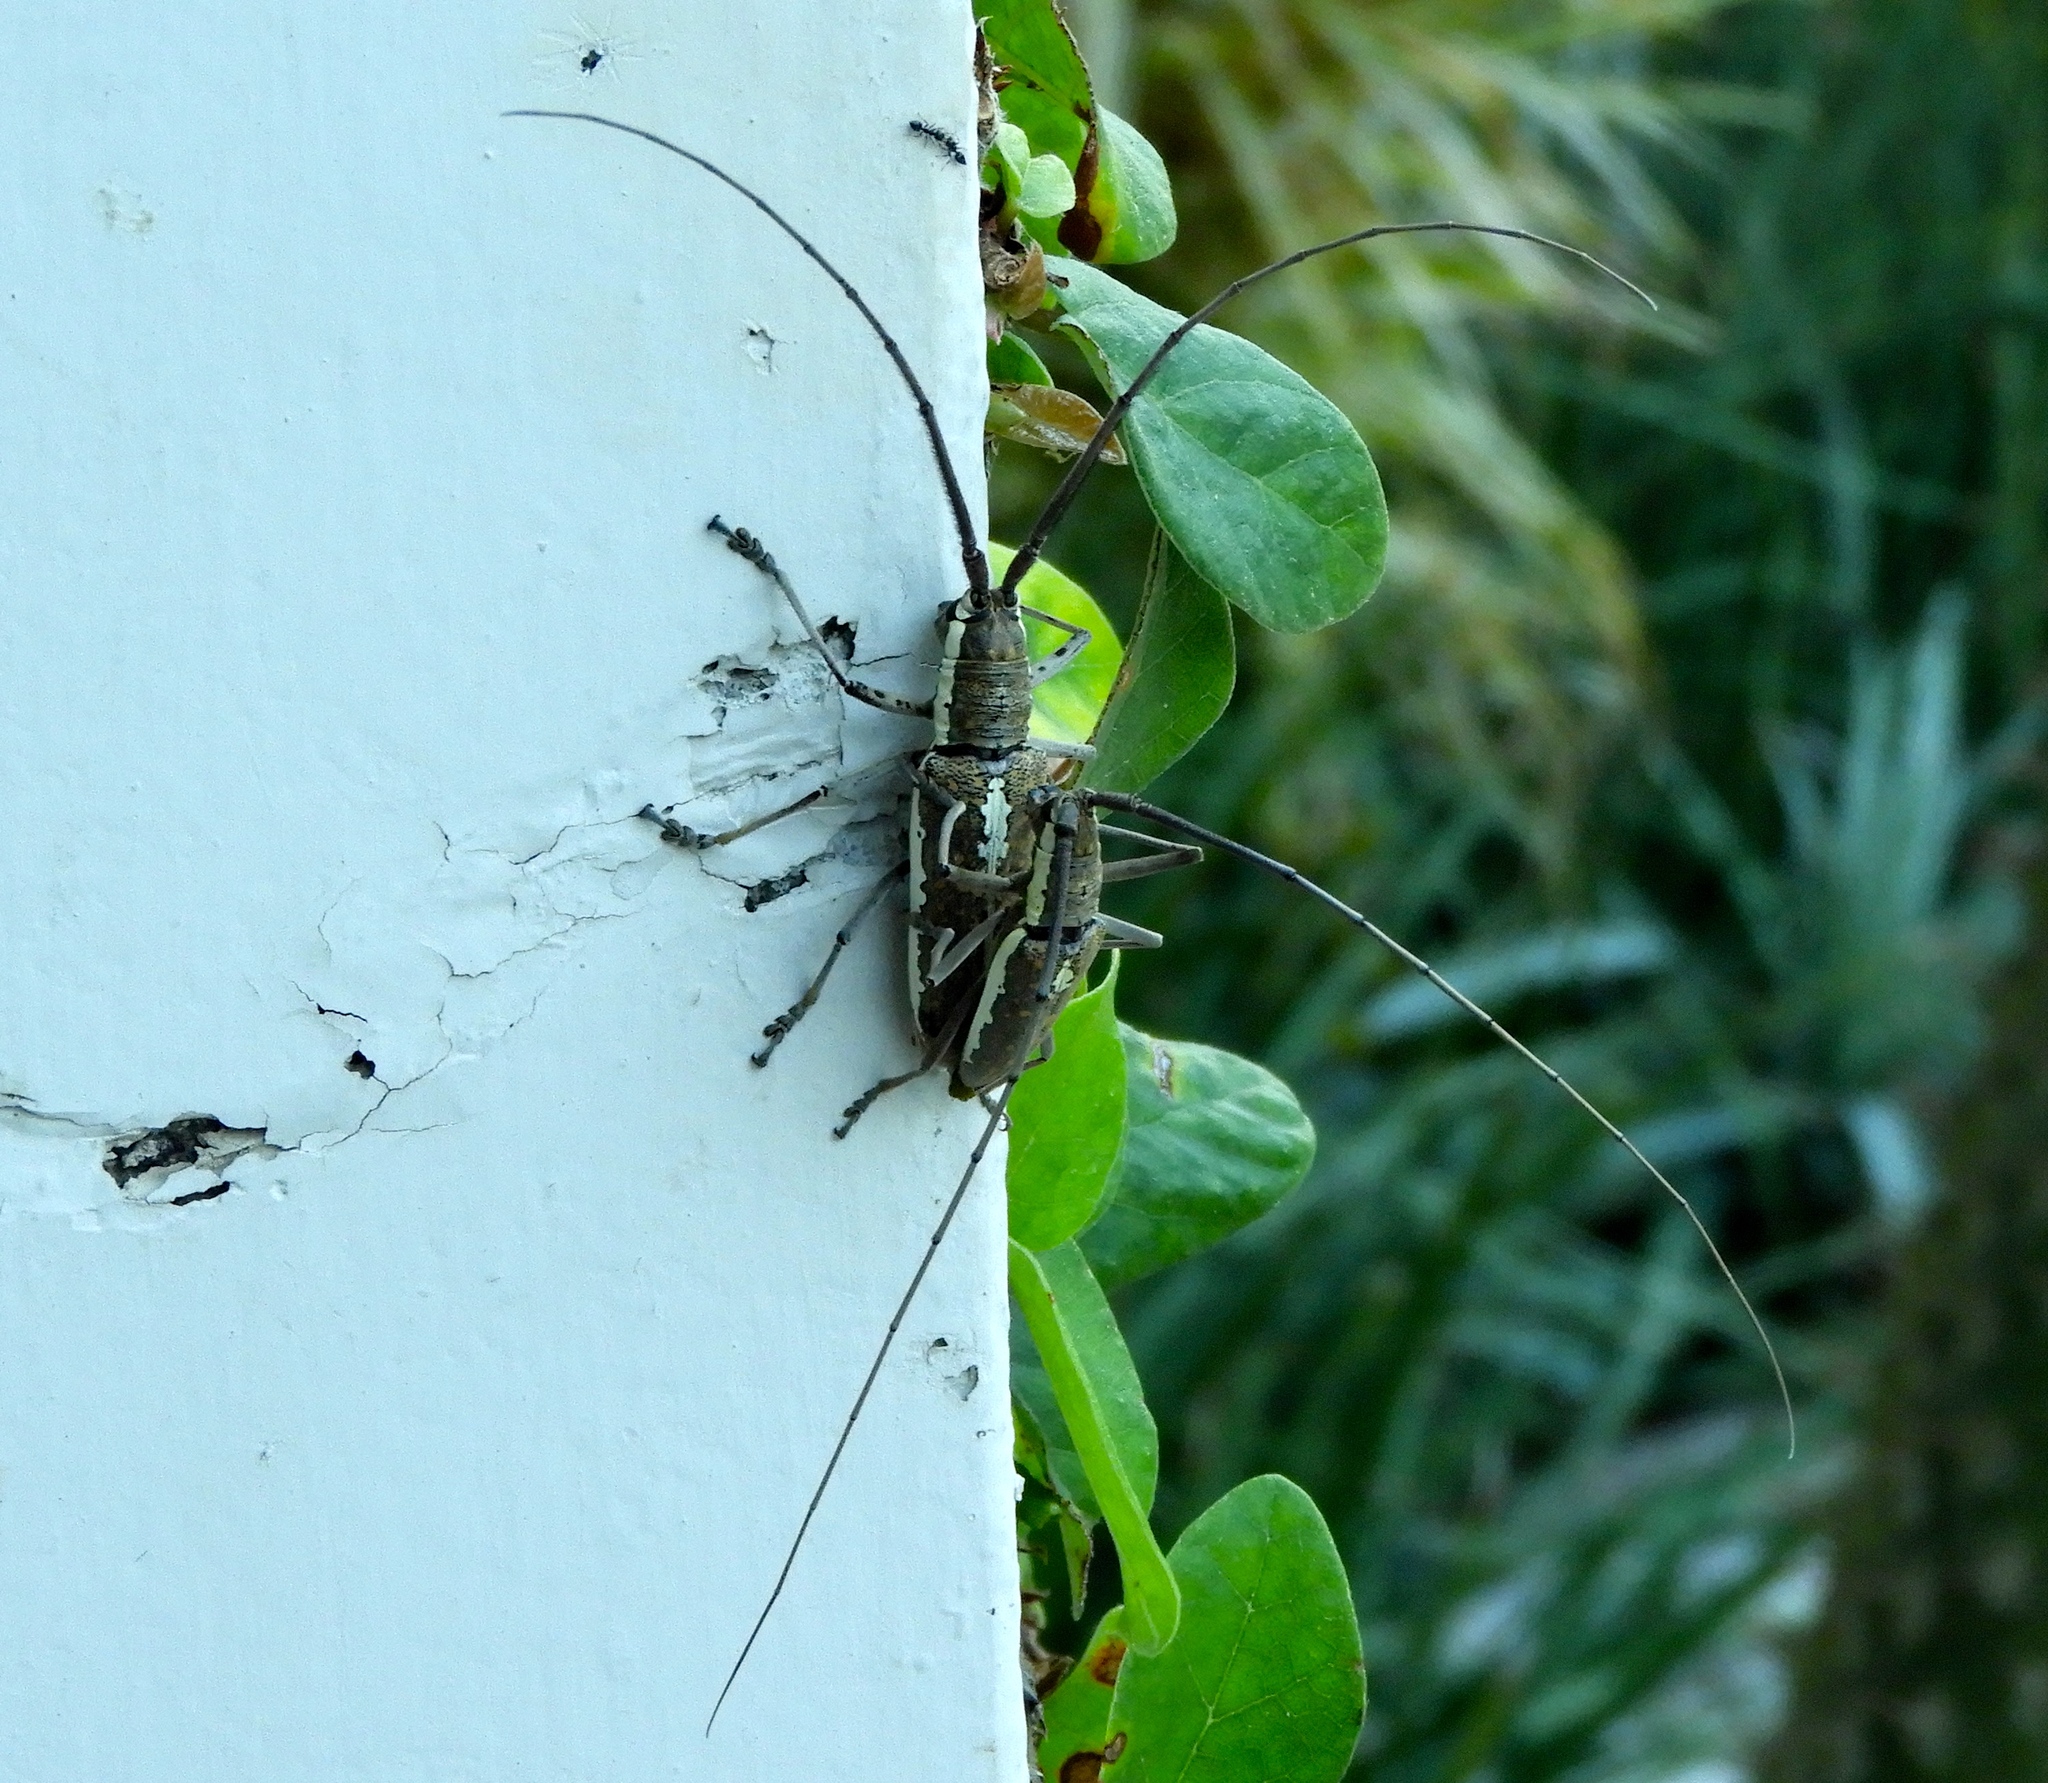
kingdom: Animalia
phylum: Arthropoda
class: Insecta
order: Coleoptera
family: Cerambycidae
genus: Neoptychodes
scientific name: Neoptychodes trilineatus
